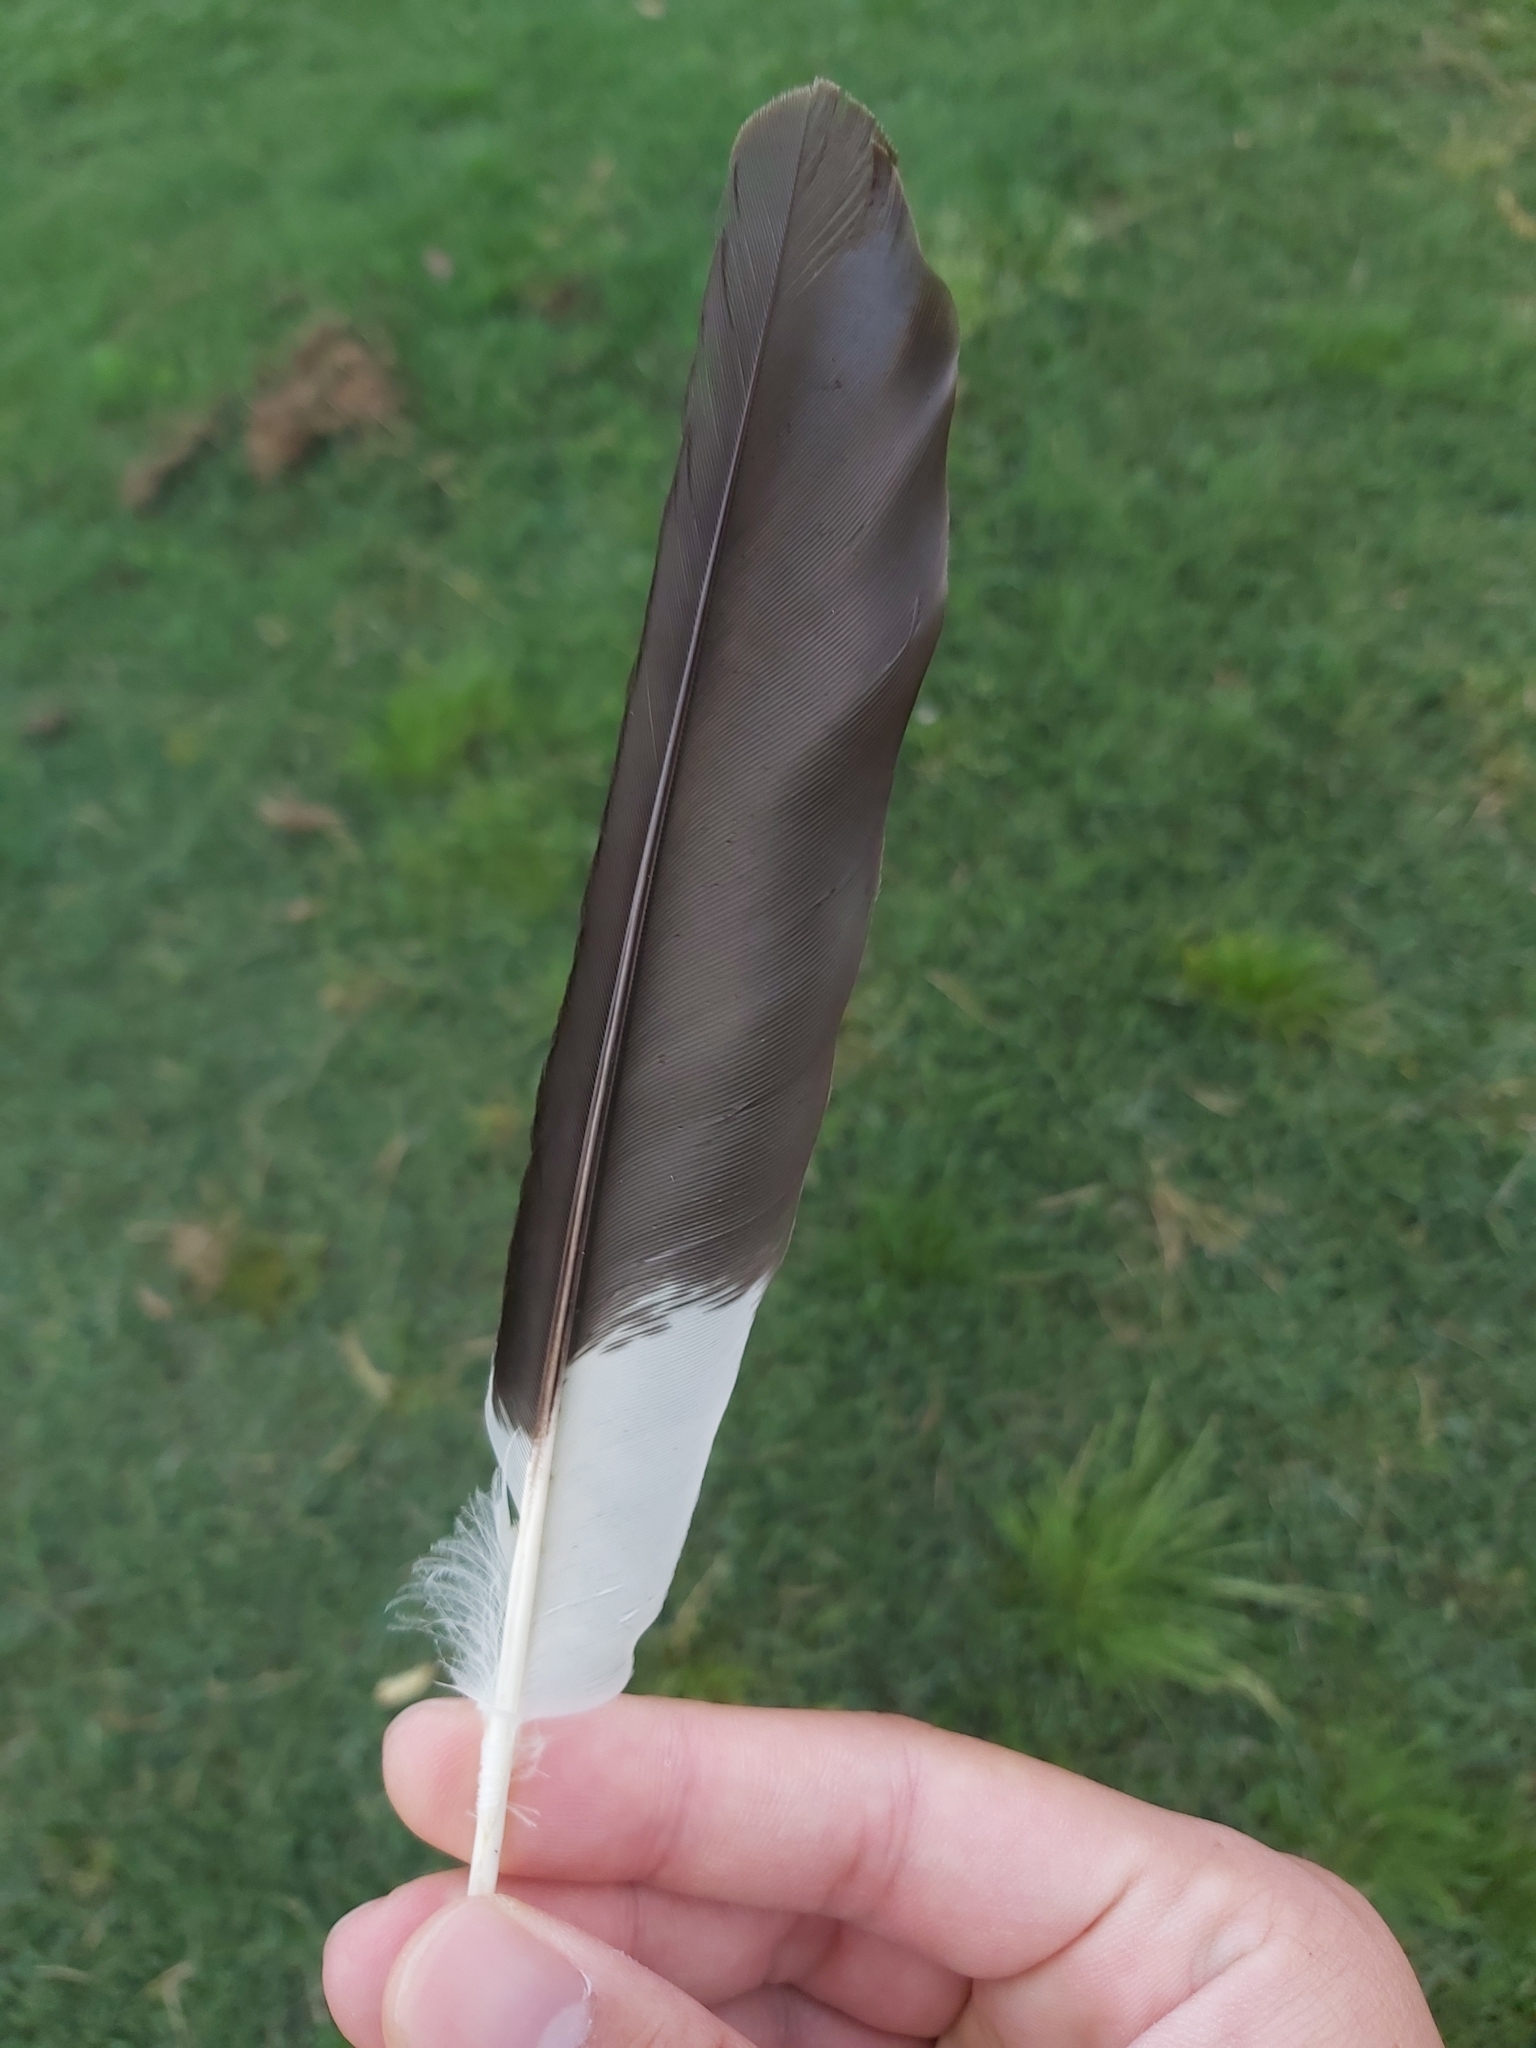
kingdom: Animalia
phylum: Chordata
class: Aves
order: Passeriformes
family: Cracticidae
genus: Strepera
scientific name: Strepera graculina
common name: Pied currawong
